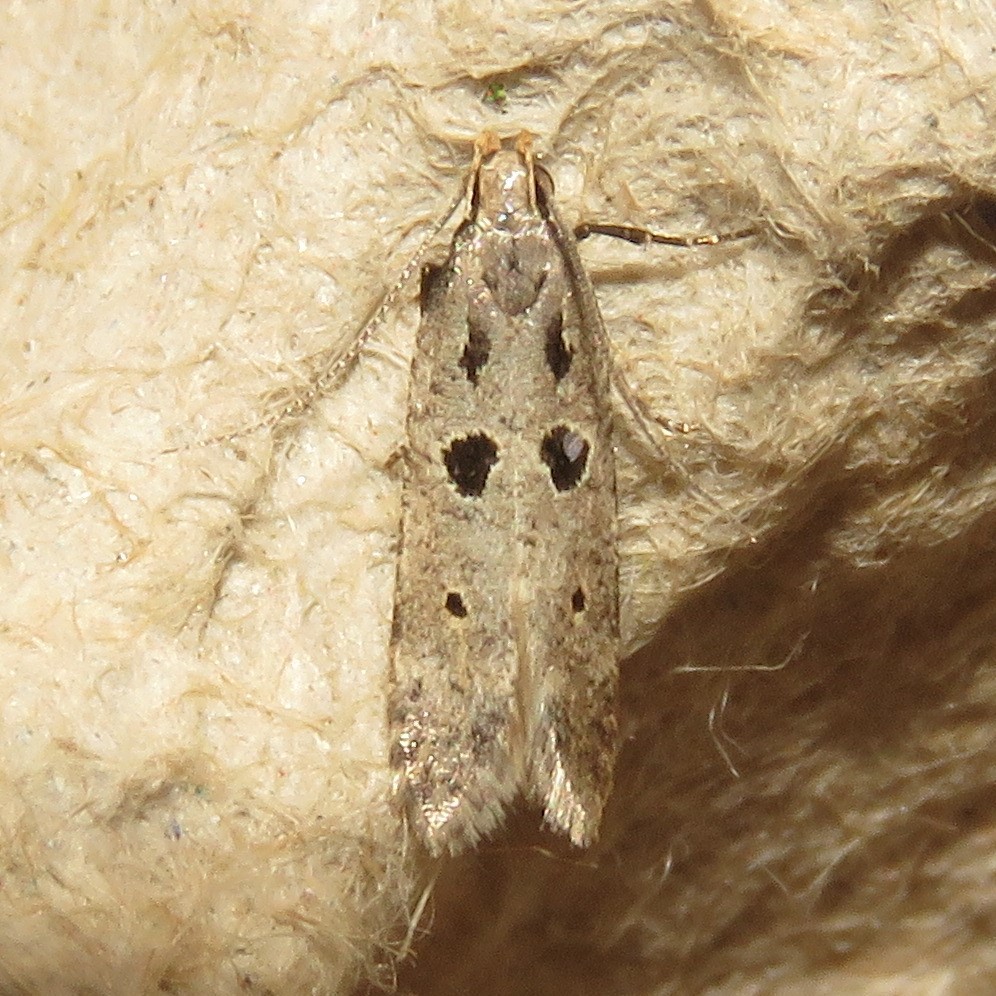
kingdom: Animalia
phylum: Arthropoda
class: Insecta
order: Lepidoptera
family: Gelechiidae
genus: Deltophora
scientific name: Deltophora sella
